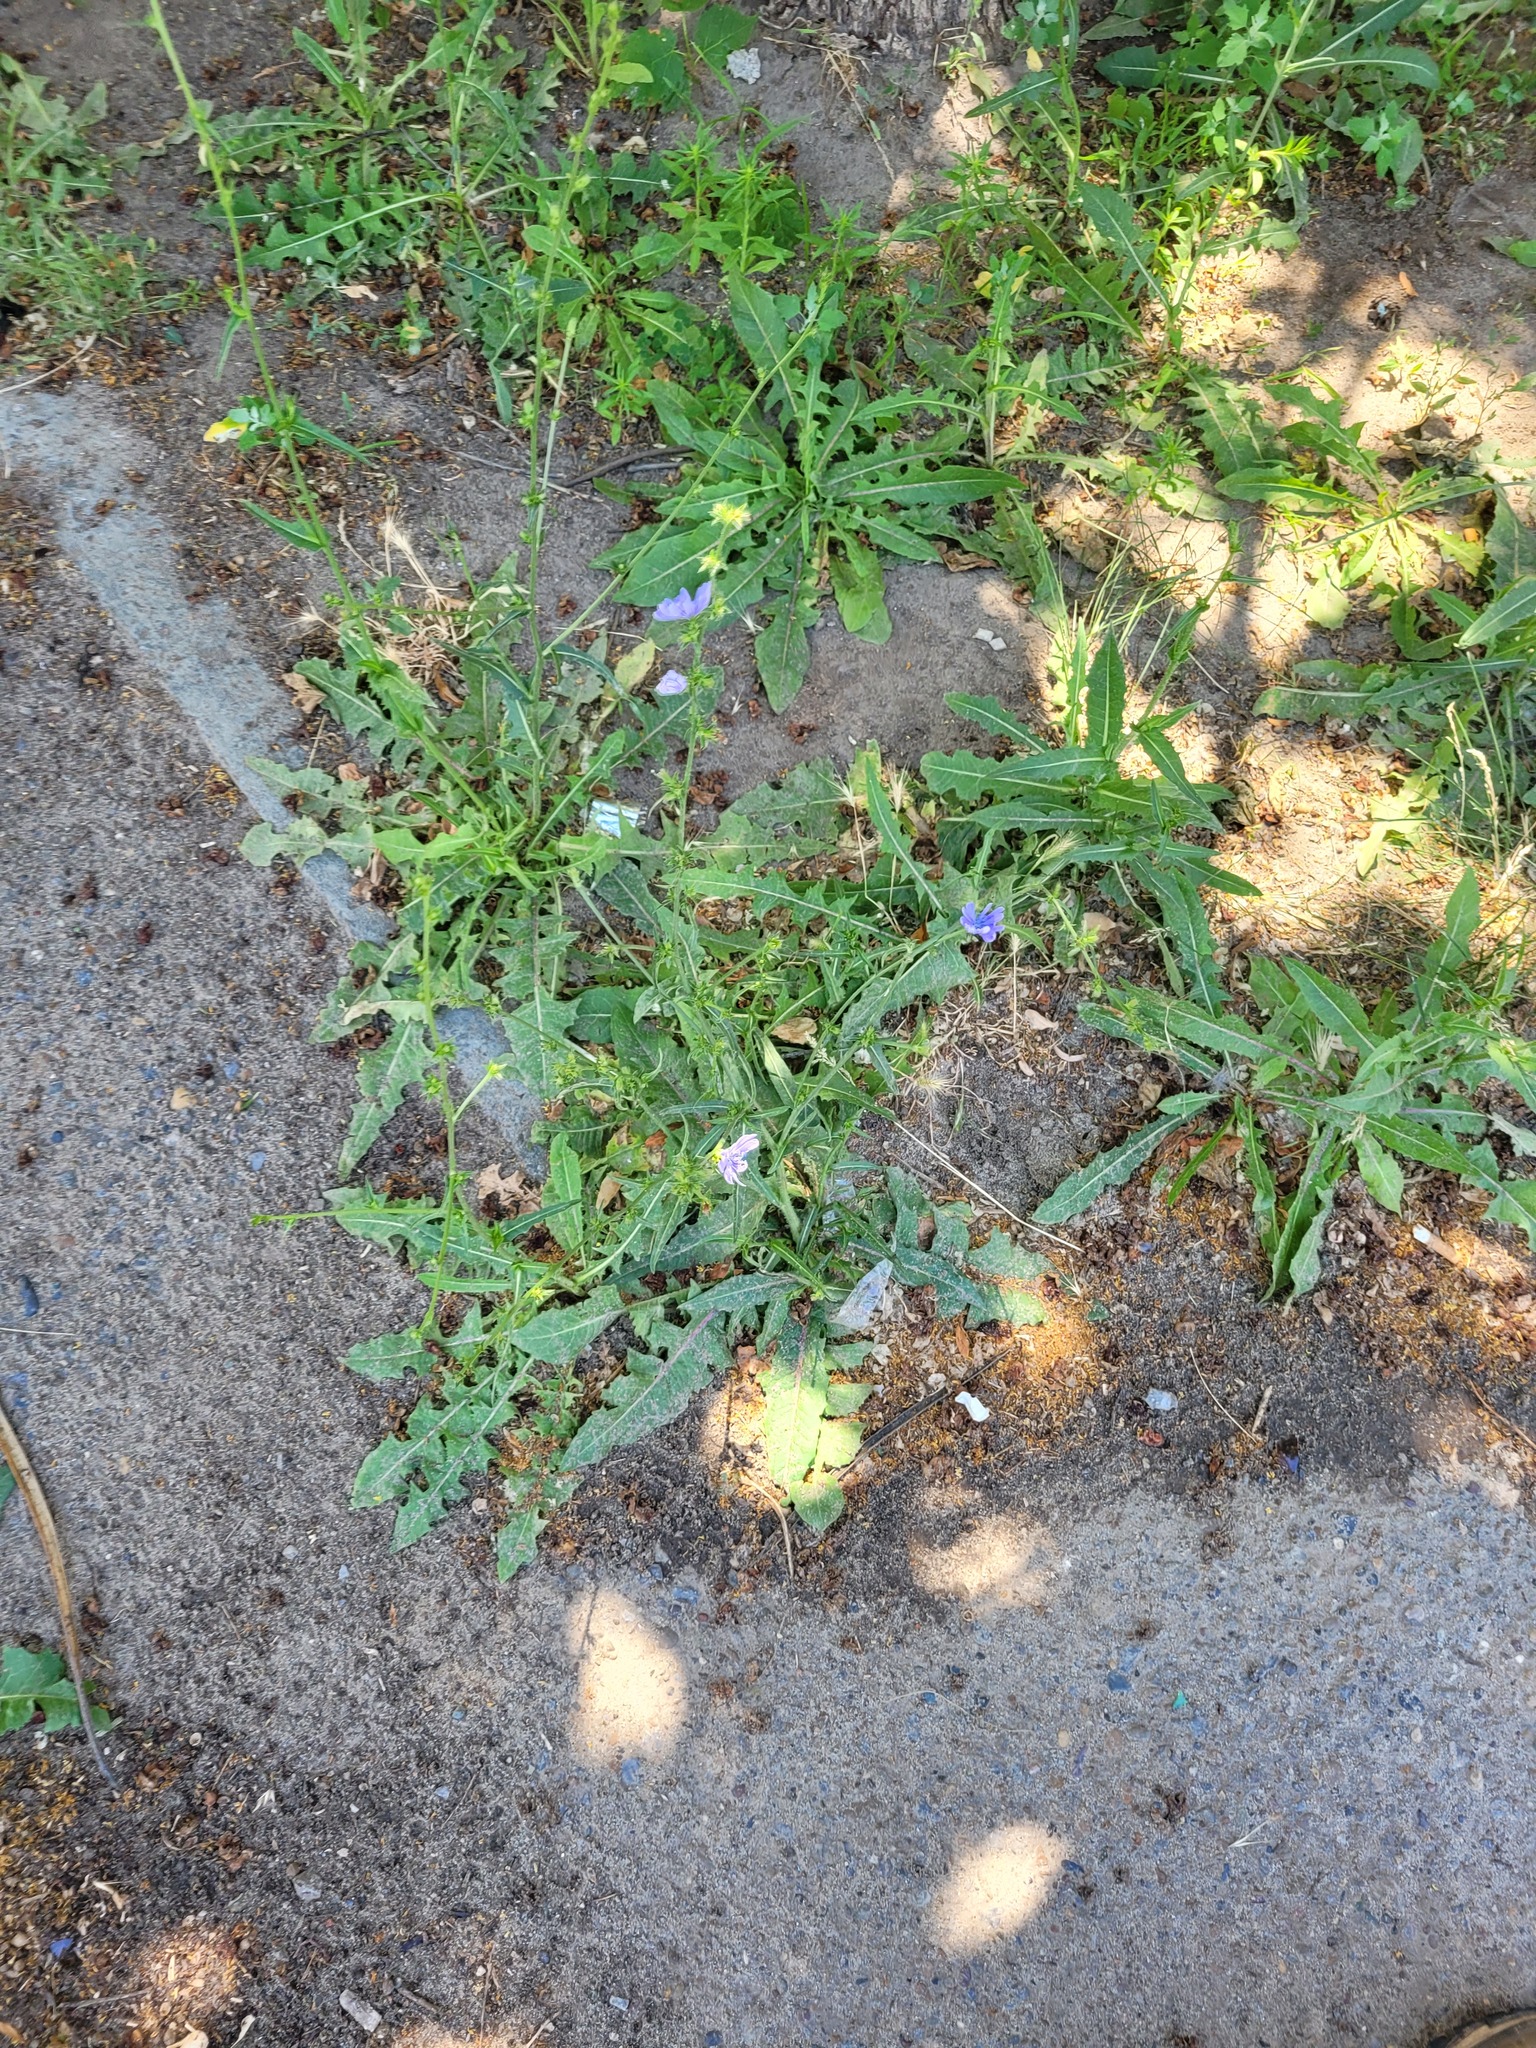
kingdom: Plantae
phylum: Tracheophyta
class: Magnoliopsida
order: Asterales
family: Asteraceae
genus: Cichorium
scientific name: Cichorium intybus
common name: Chicory
